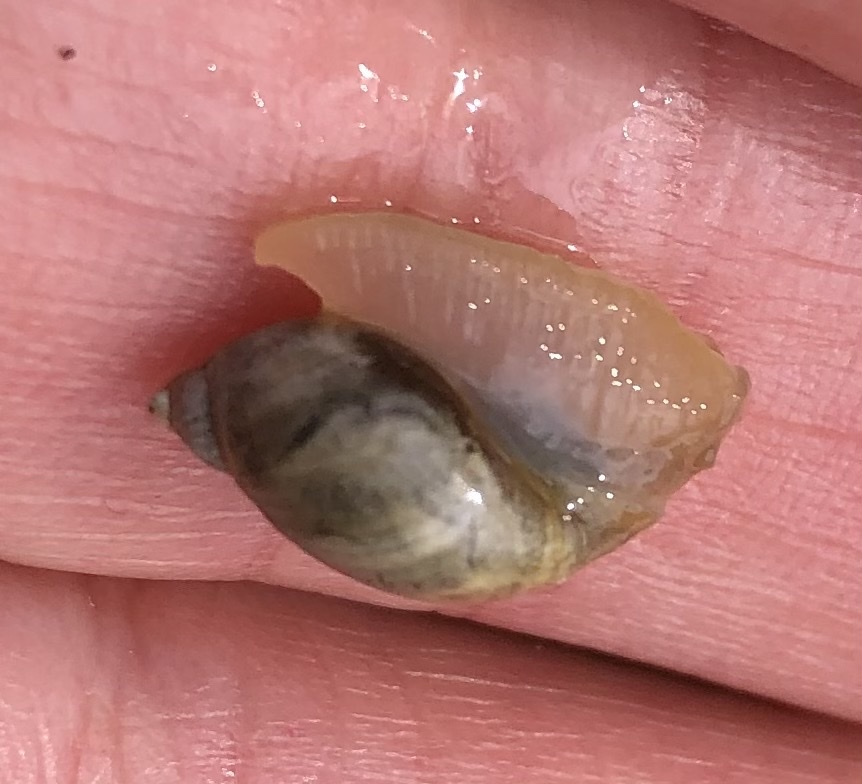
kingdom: Animalia
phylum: Mollusca
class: Gastropoda
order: Stylommatophora
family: Succineidae
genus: Succinea
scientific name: Succinea putris
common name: European ambersnail
